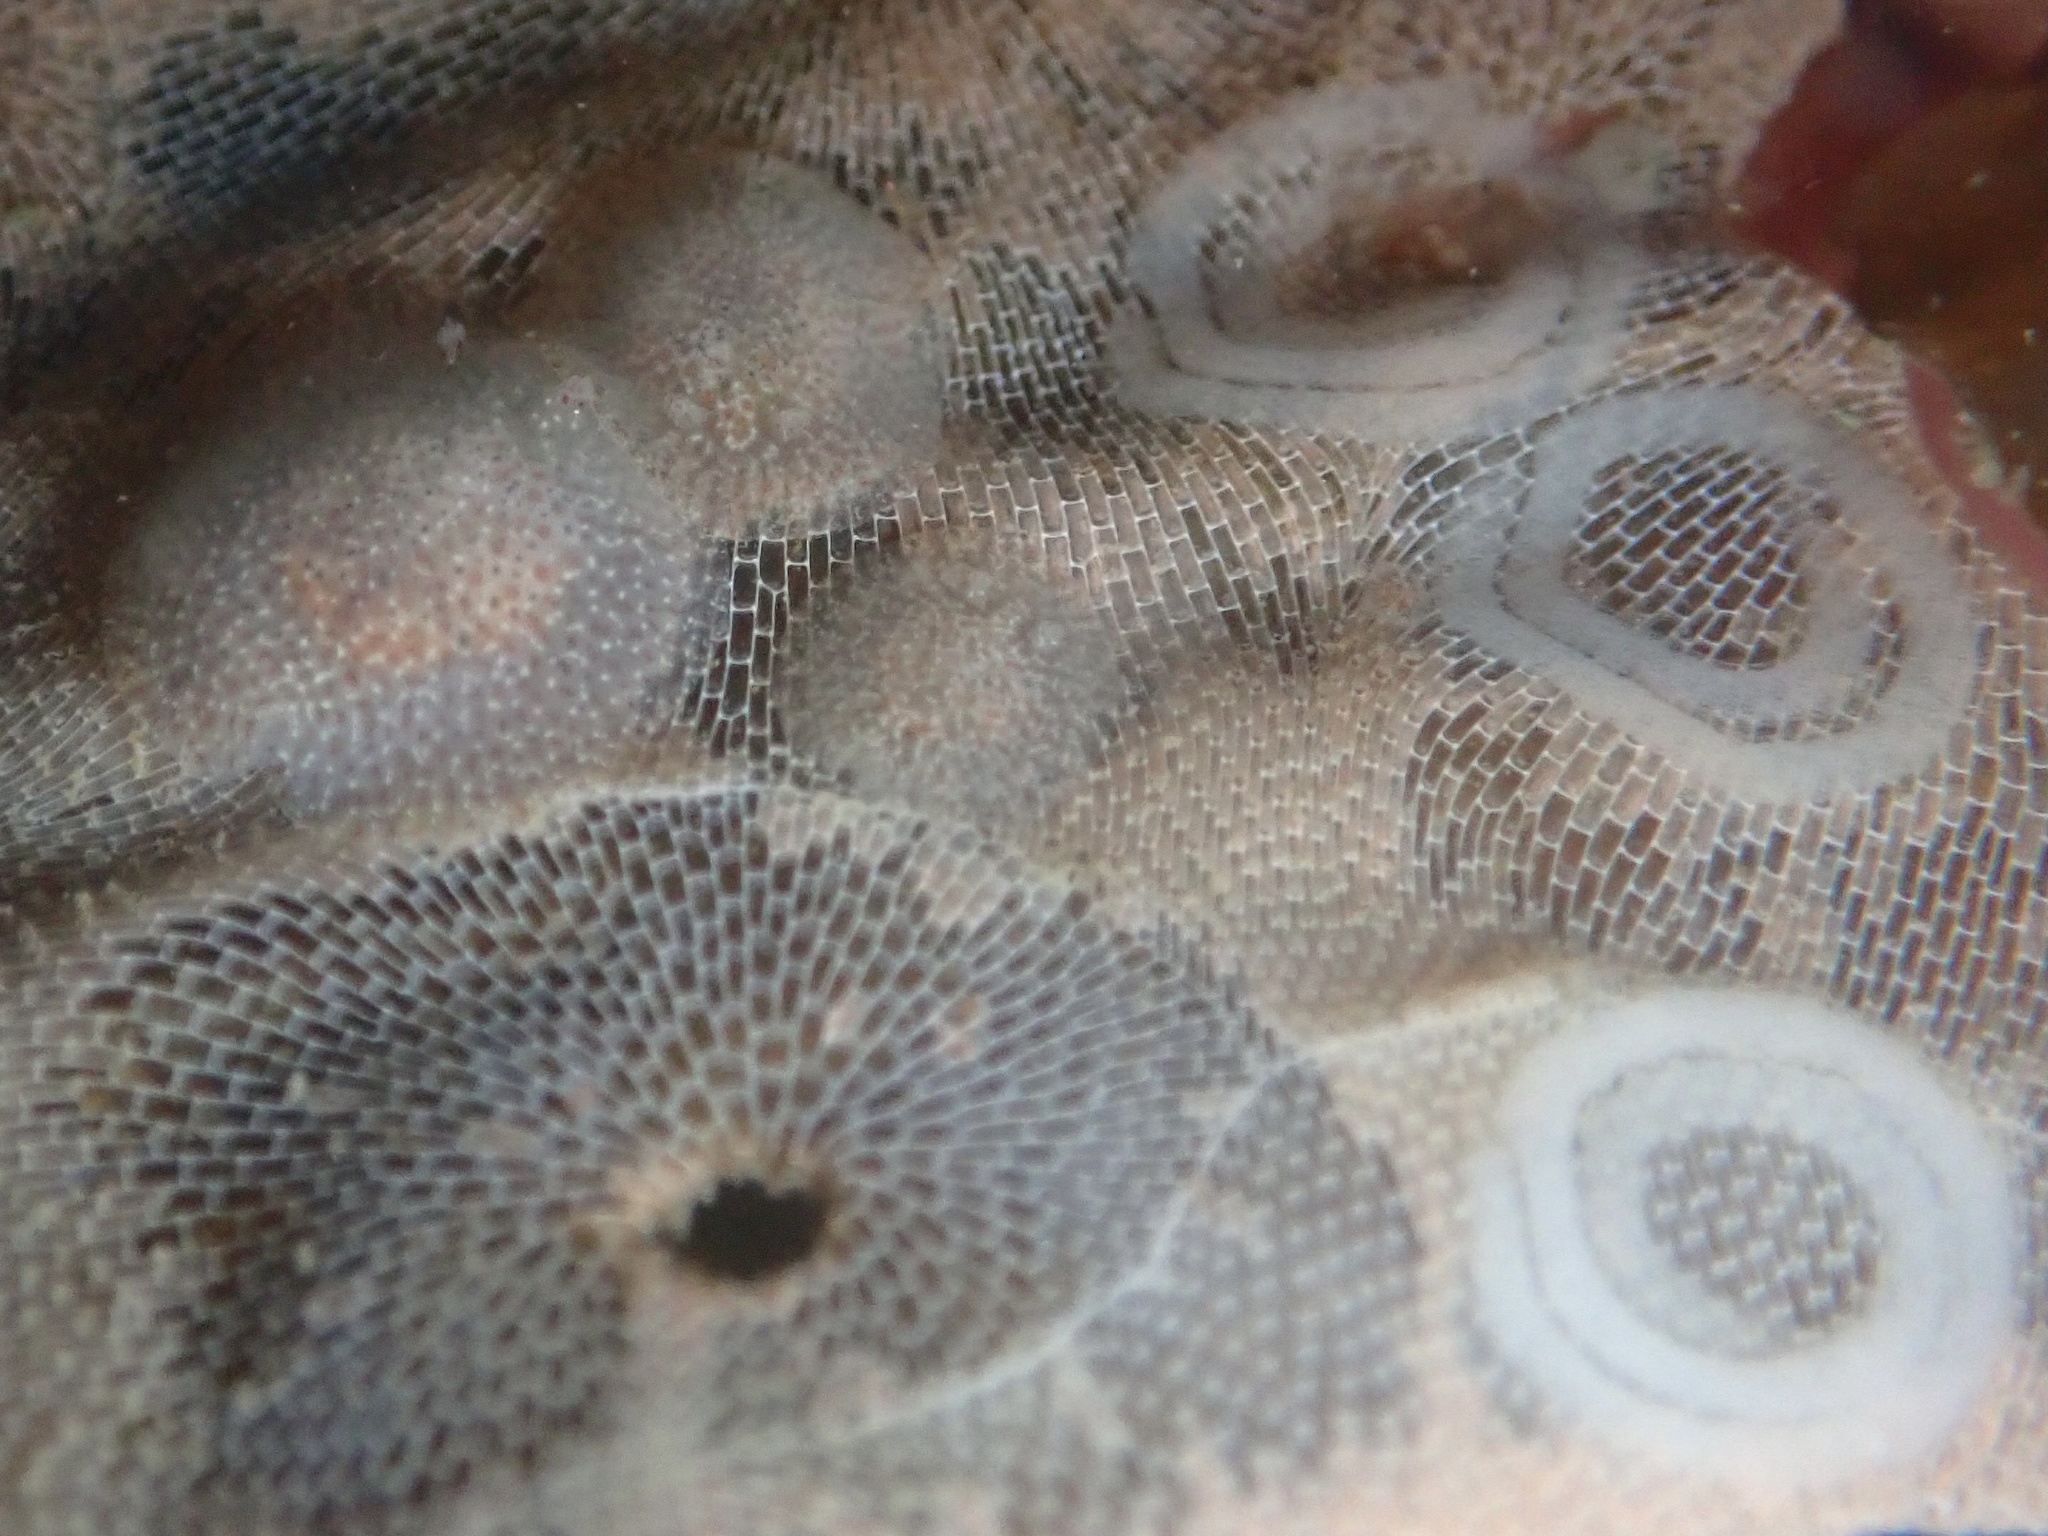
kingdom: Animalia
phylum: Mollusca
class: Gastropoda
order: Nudibranchia
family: Corambidae
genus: Corambe
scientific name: Corambe pacifica
